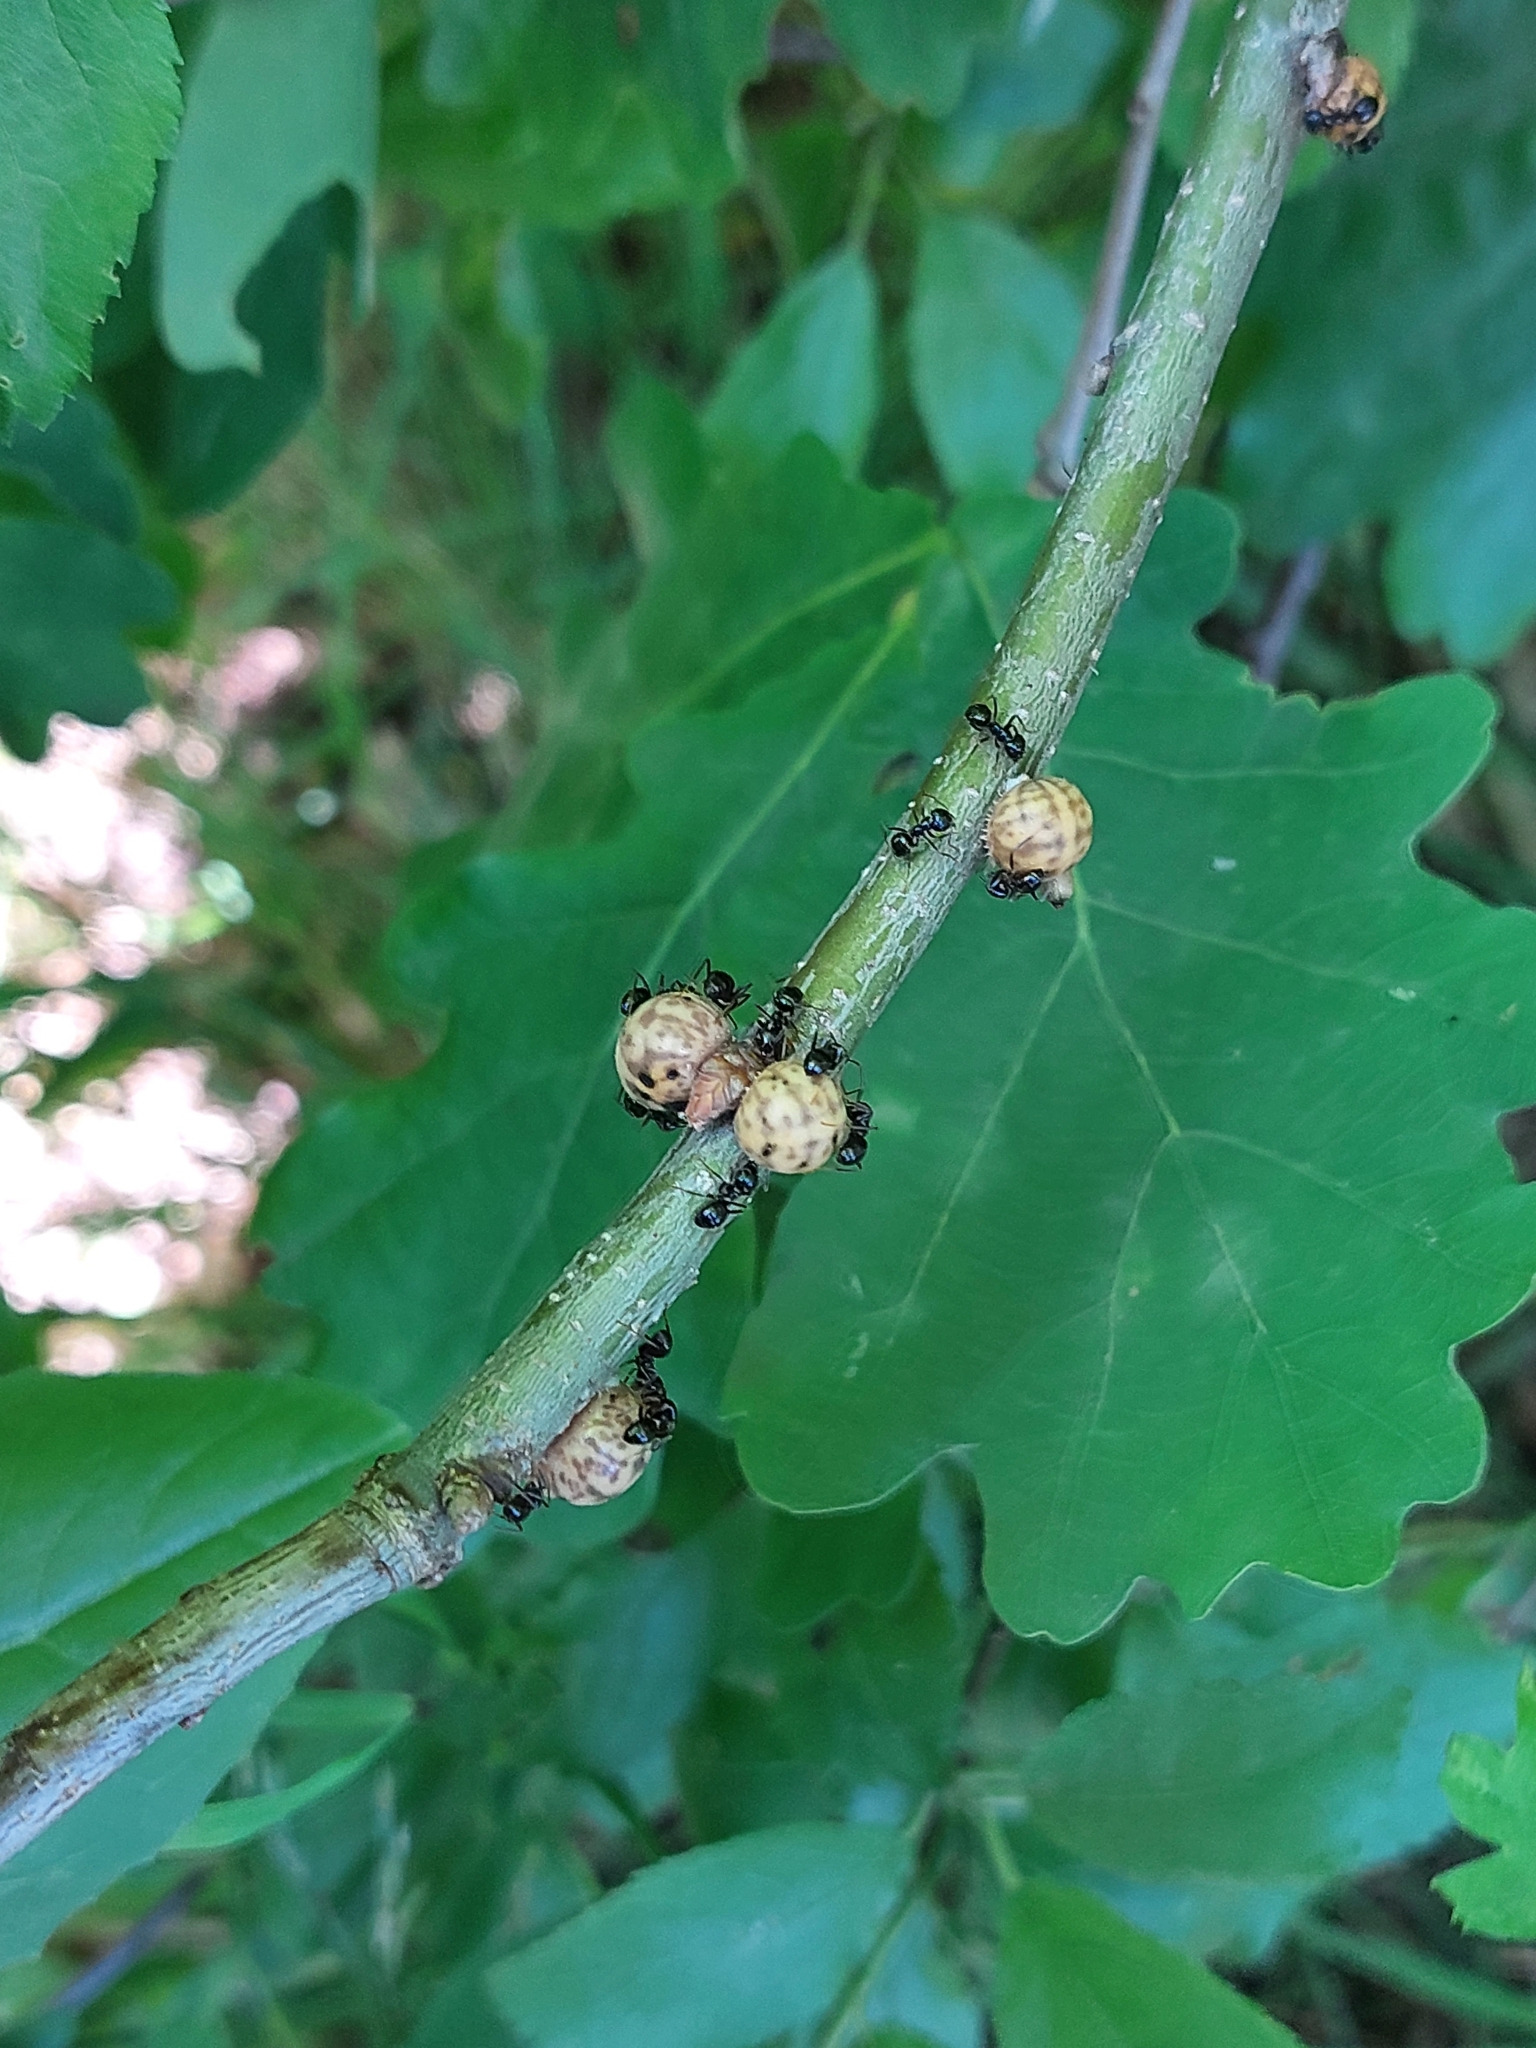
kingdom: Animalia
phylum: Arthropoda
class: Insecta
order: Hemiptera
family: Kermesidae
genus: Kermes
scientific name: Kermes roboris
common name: English oak kermes
